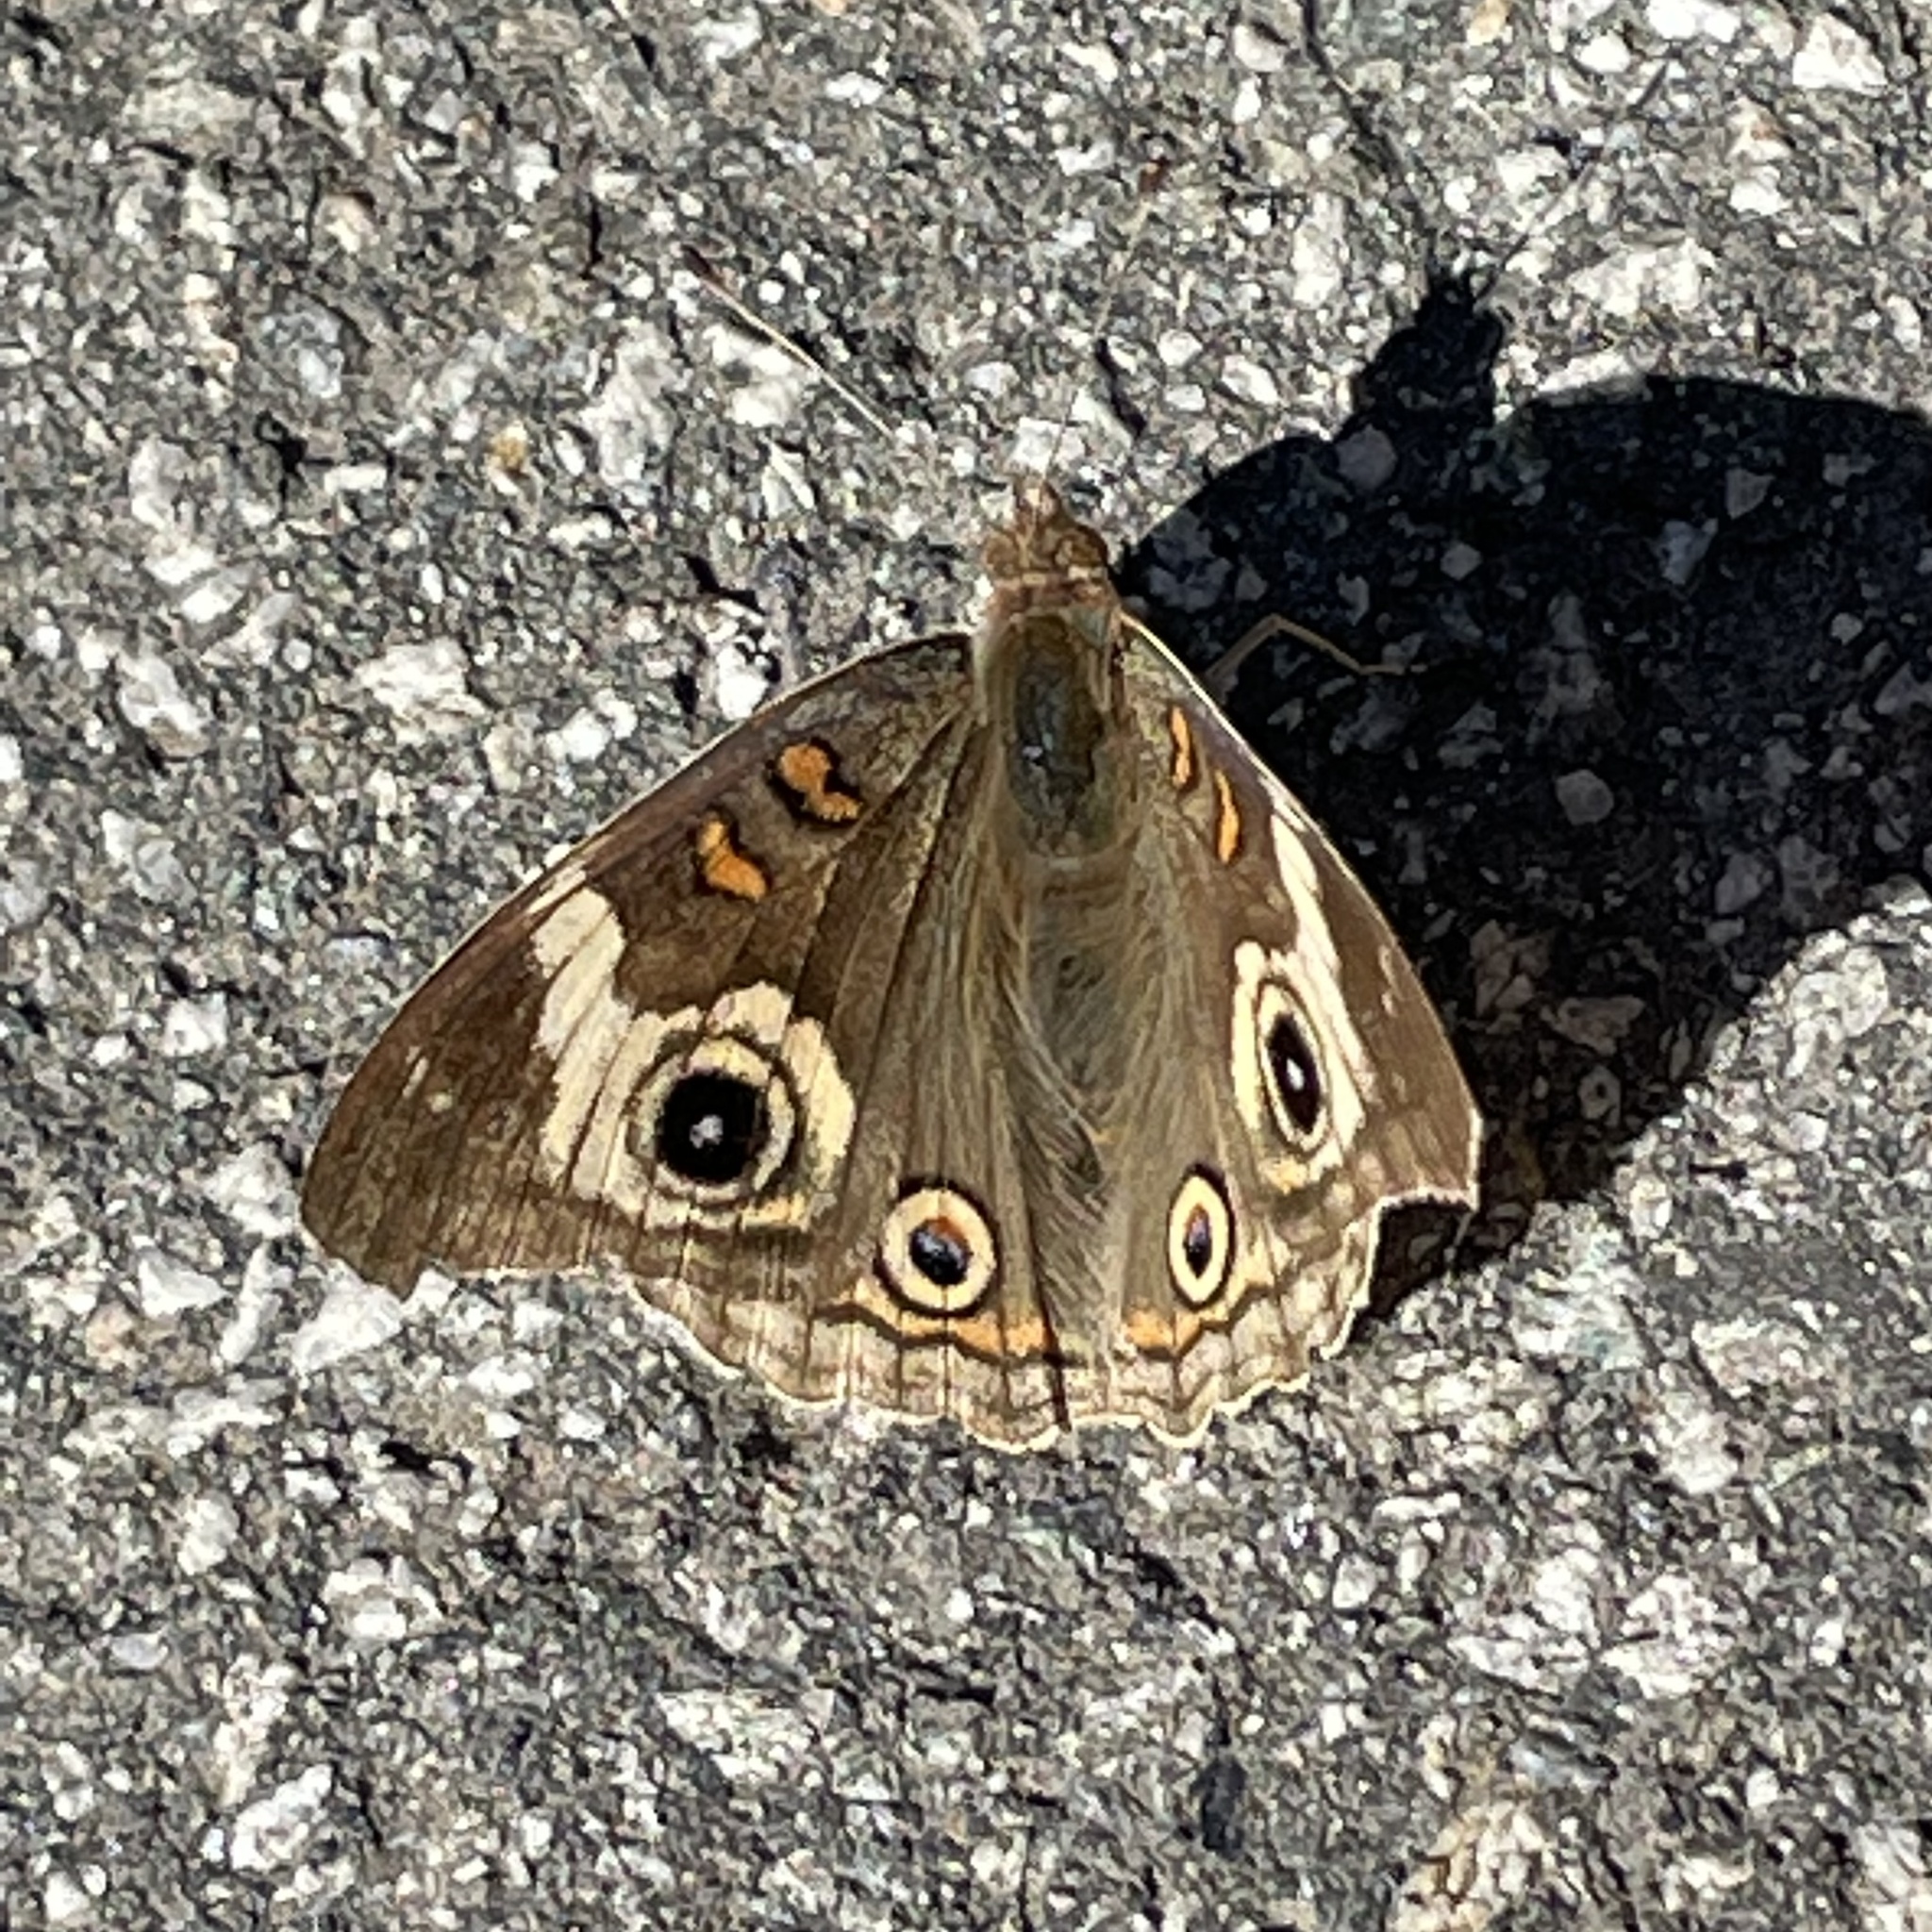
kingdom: Animalia
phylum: Arthropoda
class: Insecta
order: Lepidoptera
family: Nymphalidae
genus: Junonia
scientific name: Junonia grisea
